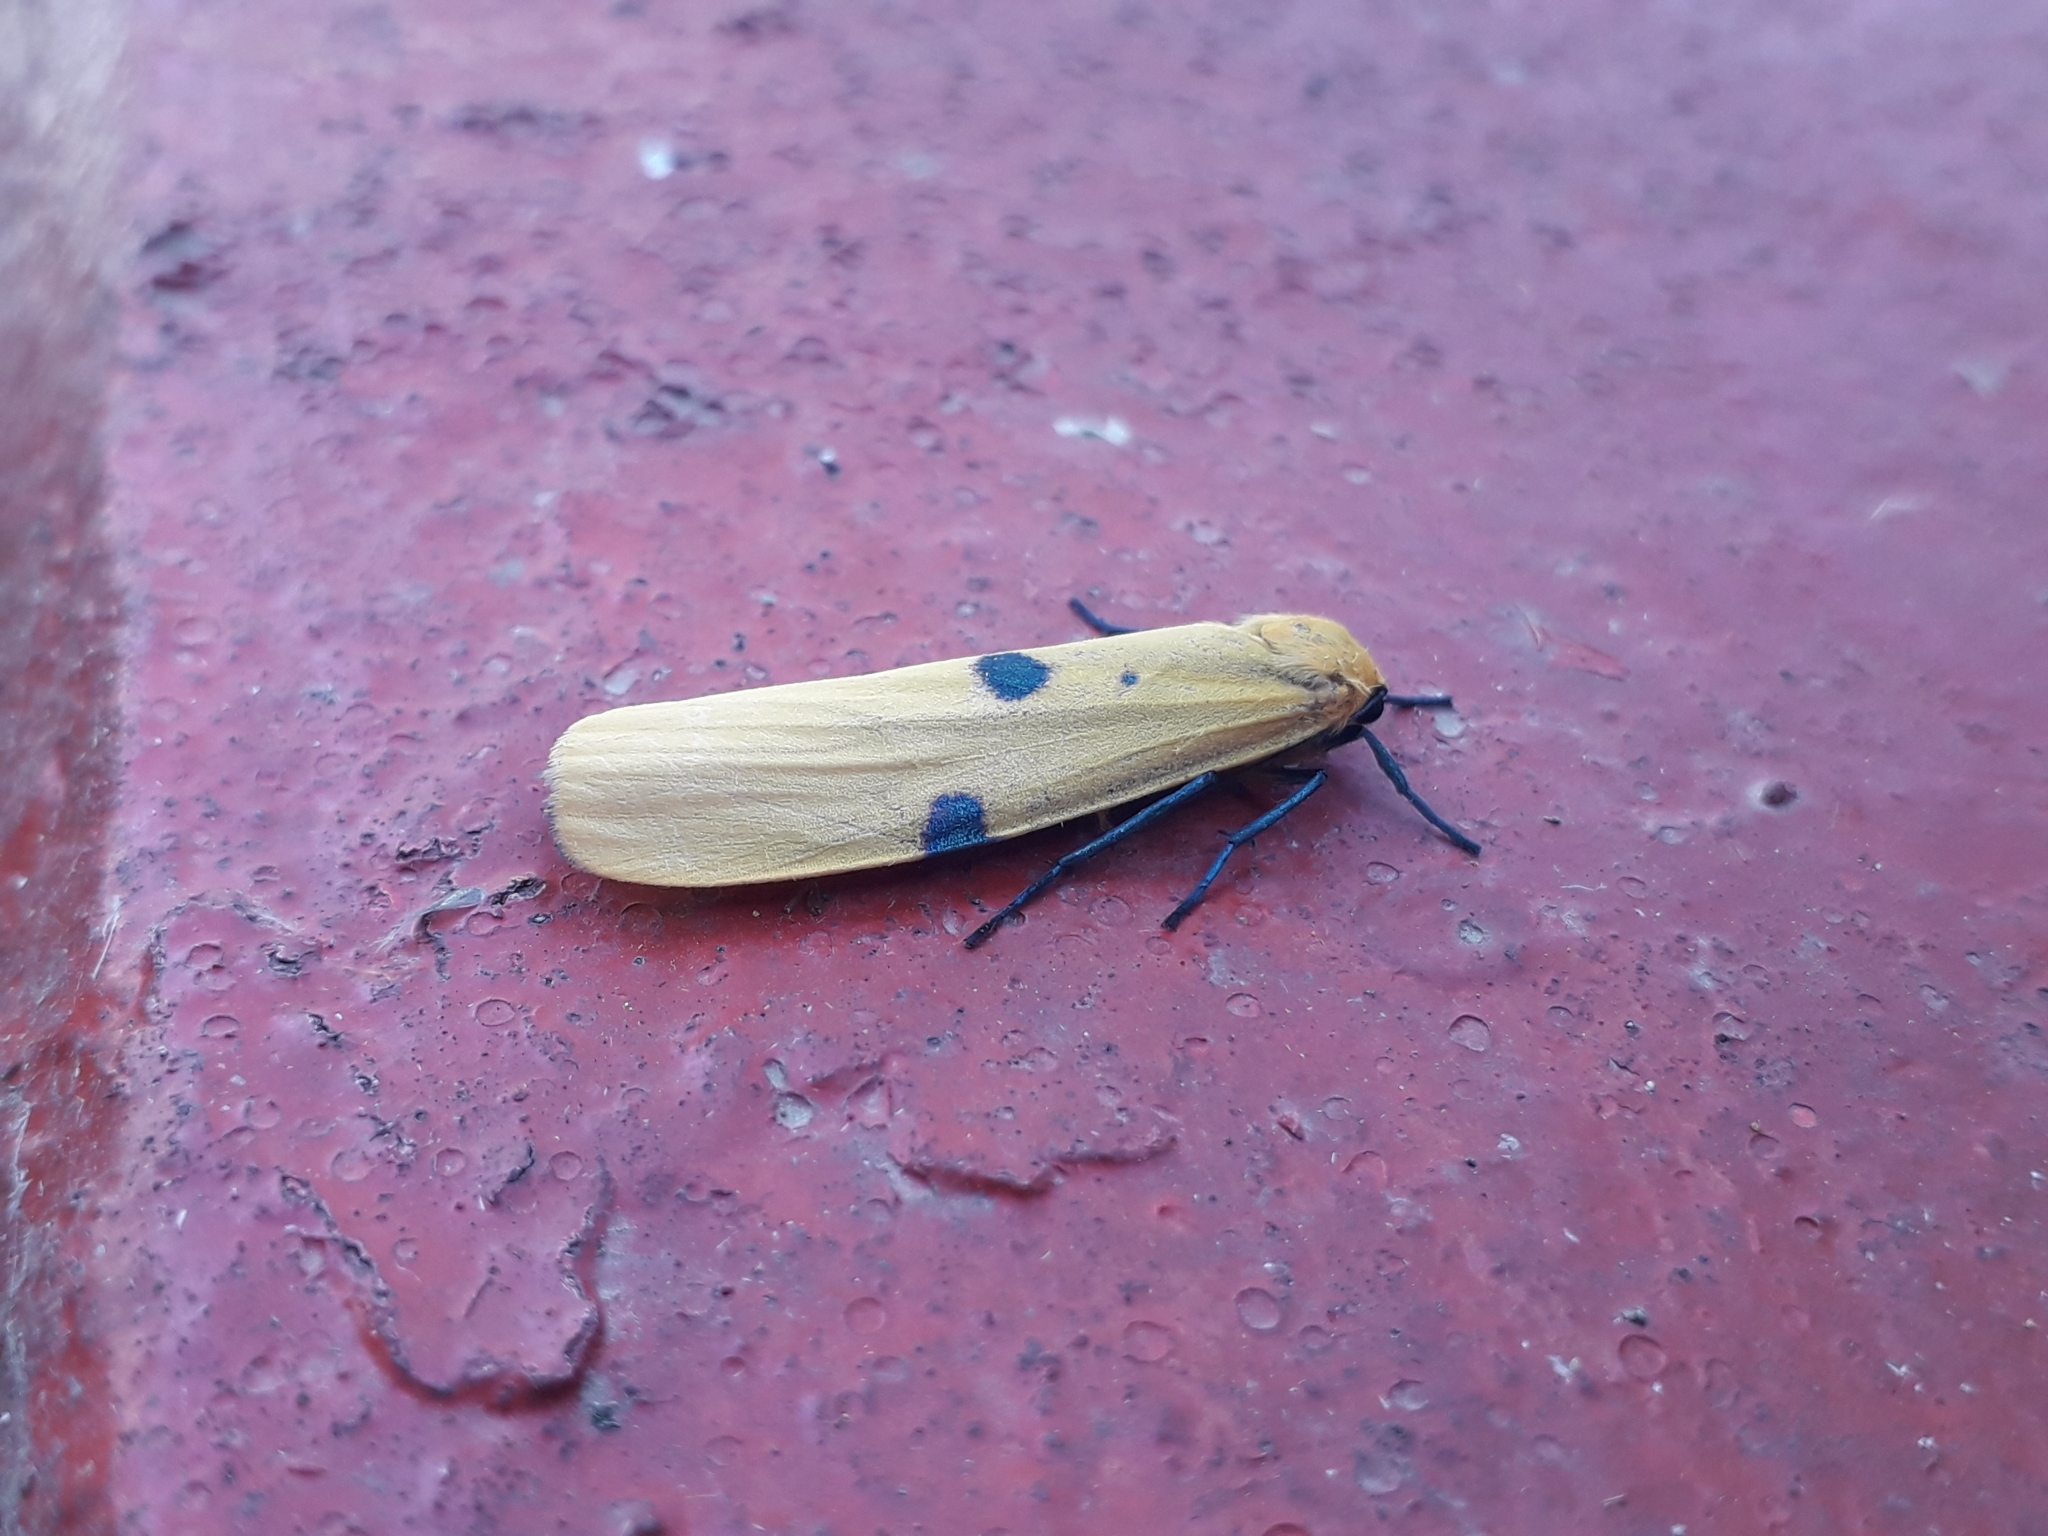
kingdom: Animalia
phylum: Arthropoda
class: Insecta
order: Lepidoptera
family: Erebidae
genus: Lithosia
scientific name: Lithosia quadra
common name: Four-spotted footman
